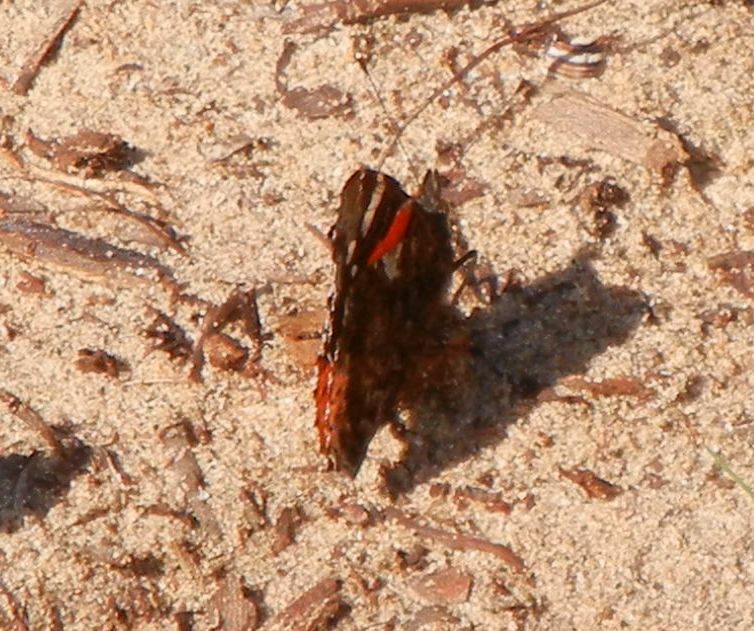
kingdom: Animalia
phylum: Arthropoda
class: Insecta
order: Lepidoptera
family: Nymphalidae
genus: Vanessa
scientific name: Vanessa atalanta
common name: Red admiral
